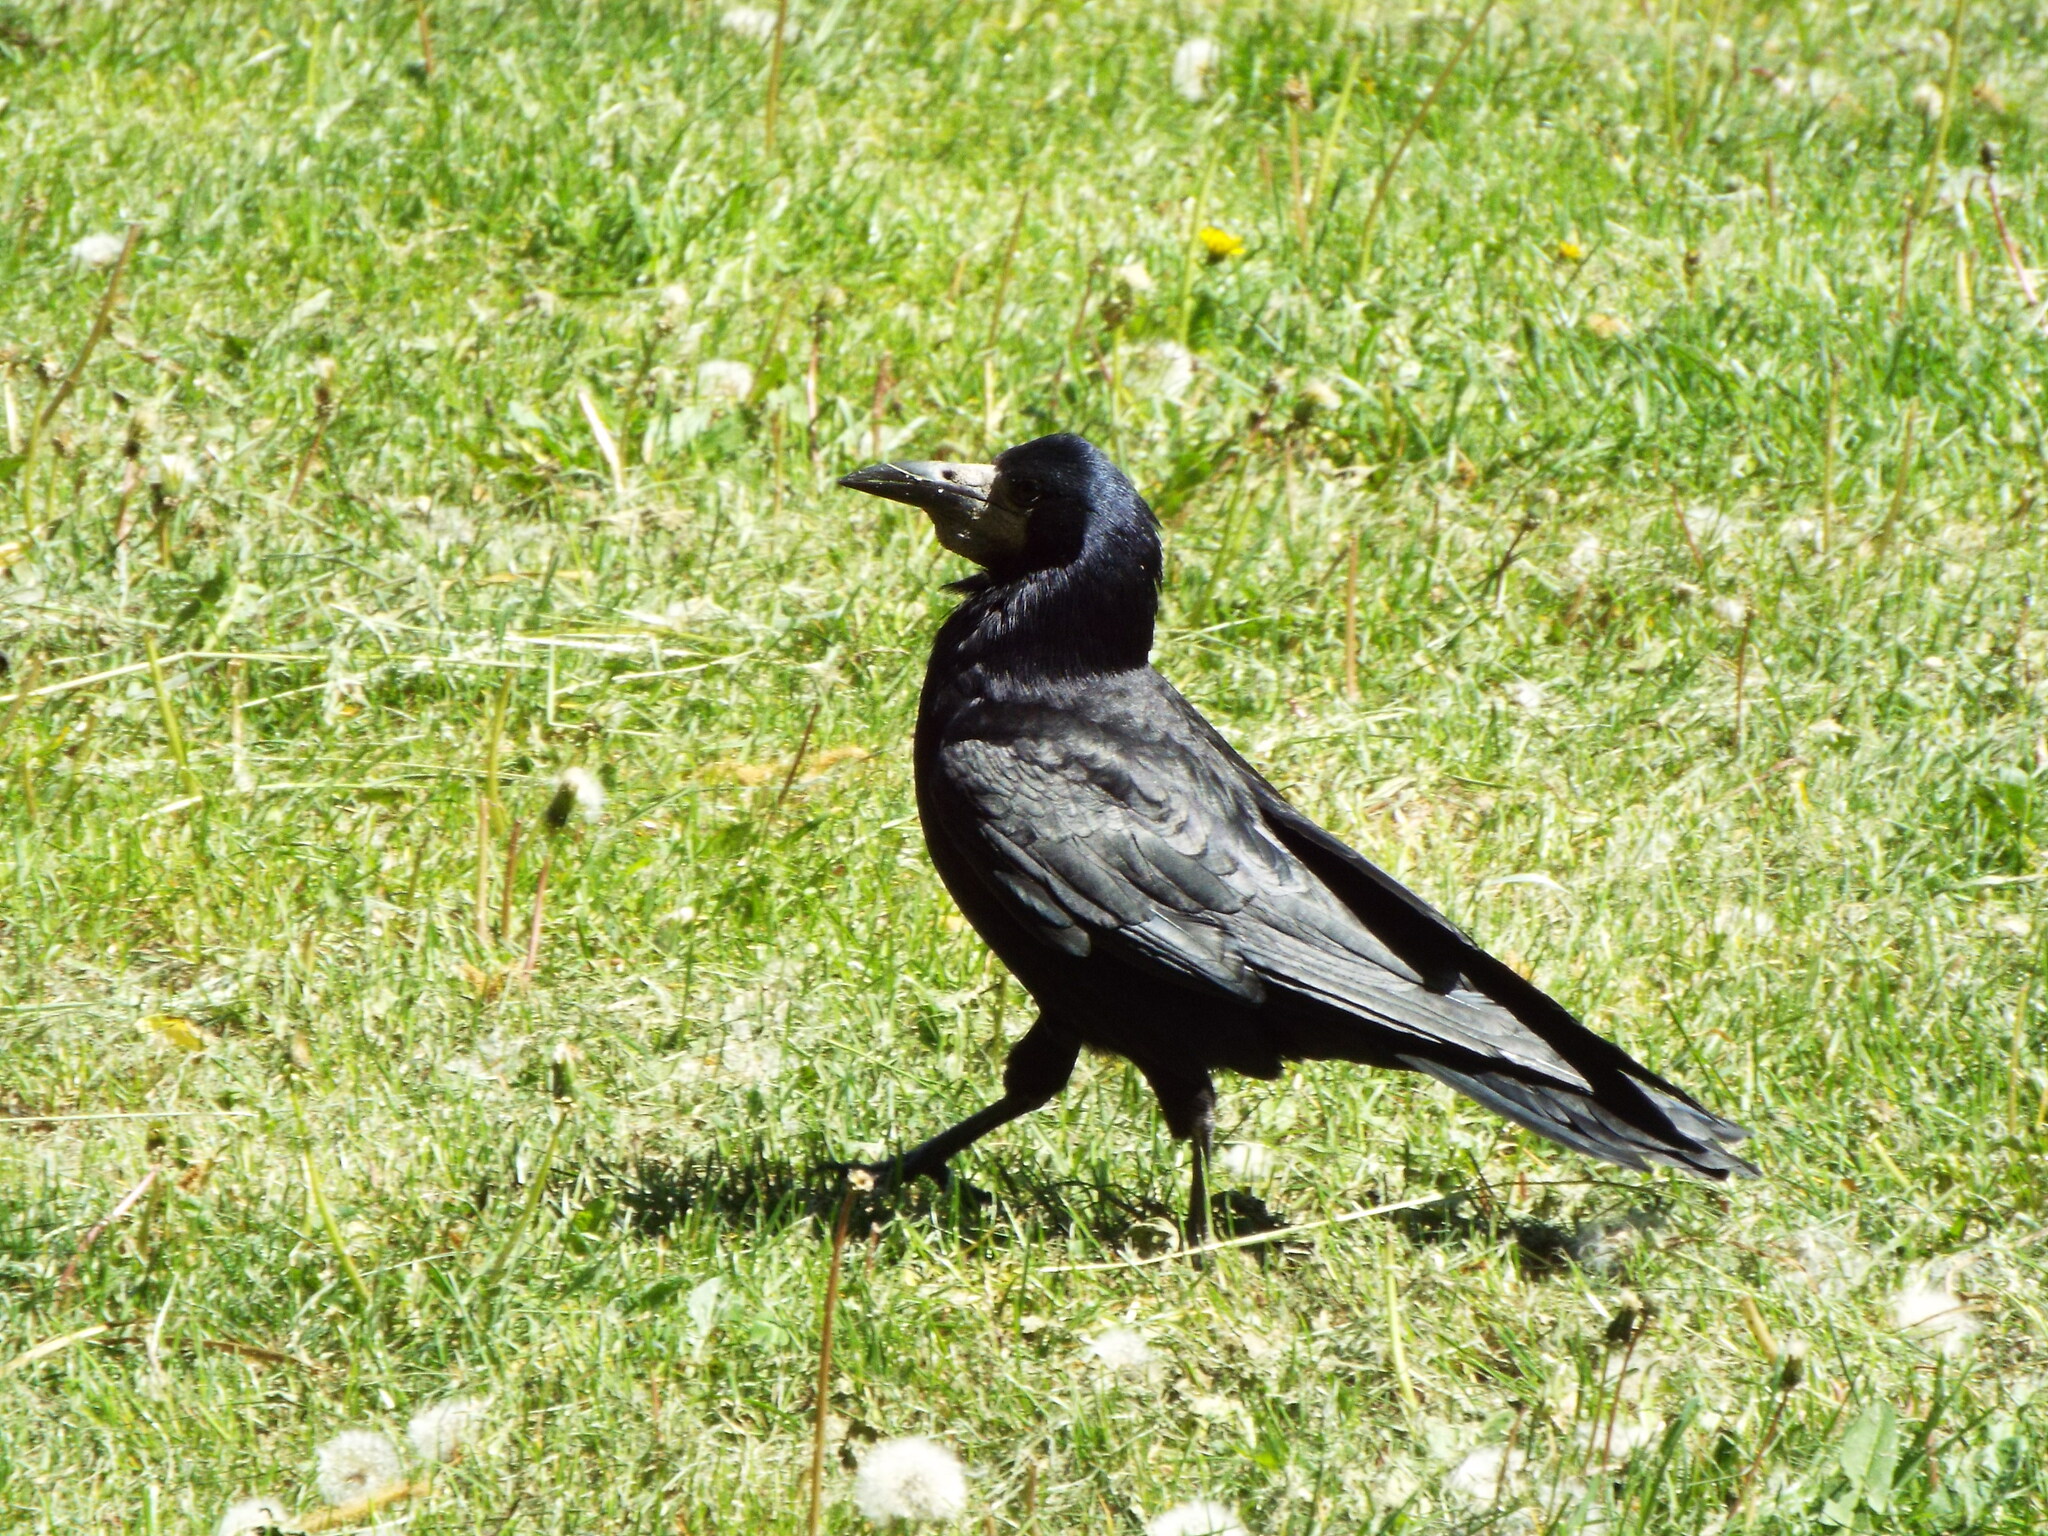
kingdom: Animalia
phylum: Chordata
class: Aves
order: Passeriformes
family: Corvidae
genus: Corvus
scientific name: Corvus frugilegus
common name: Rook
